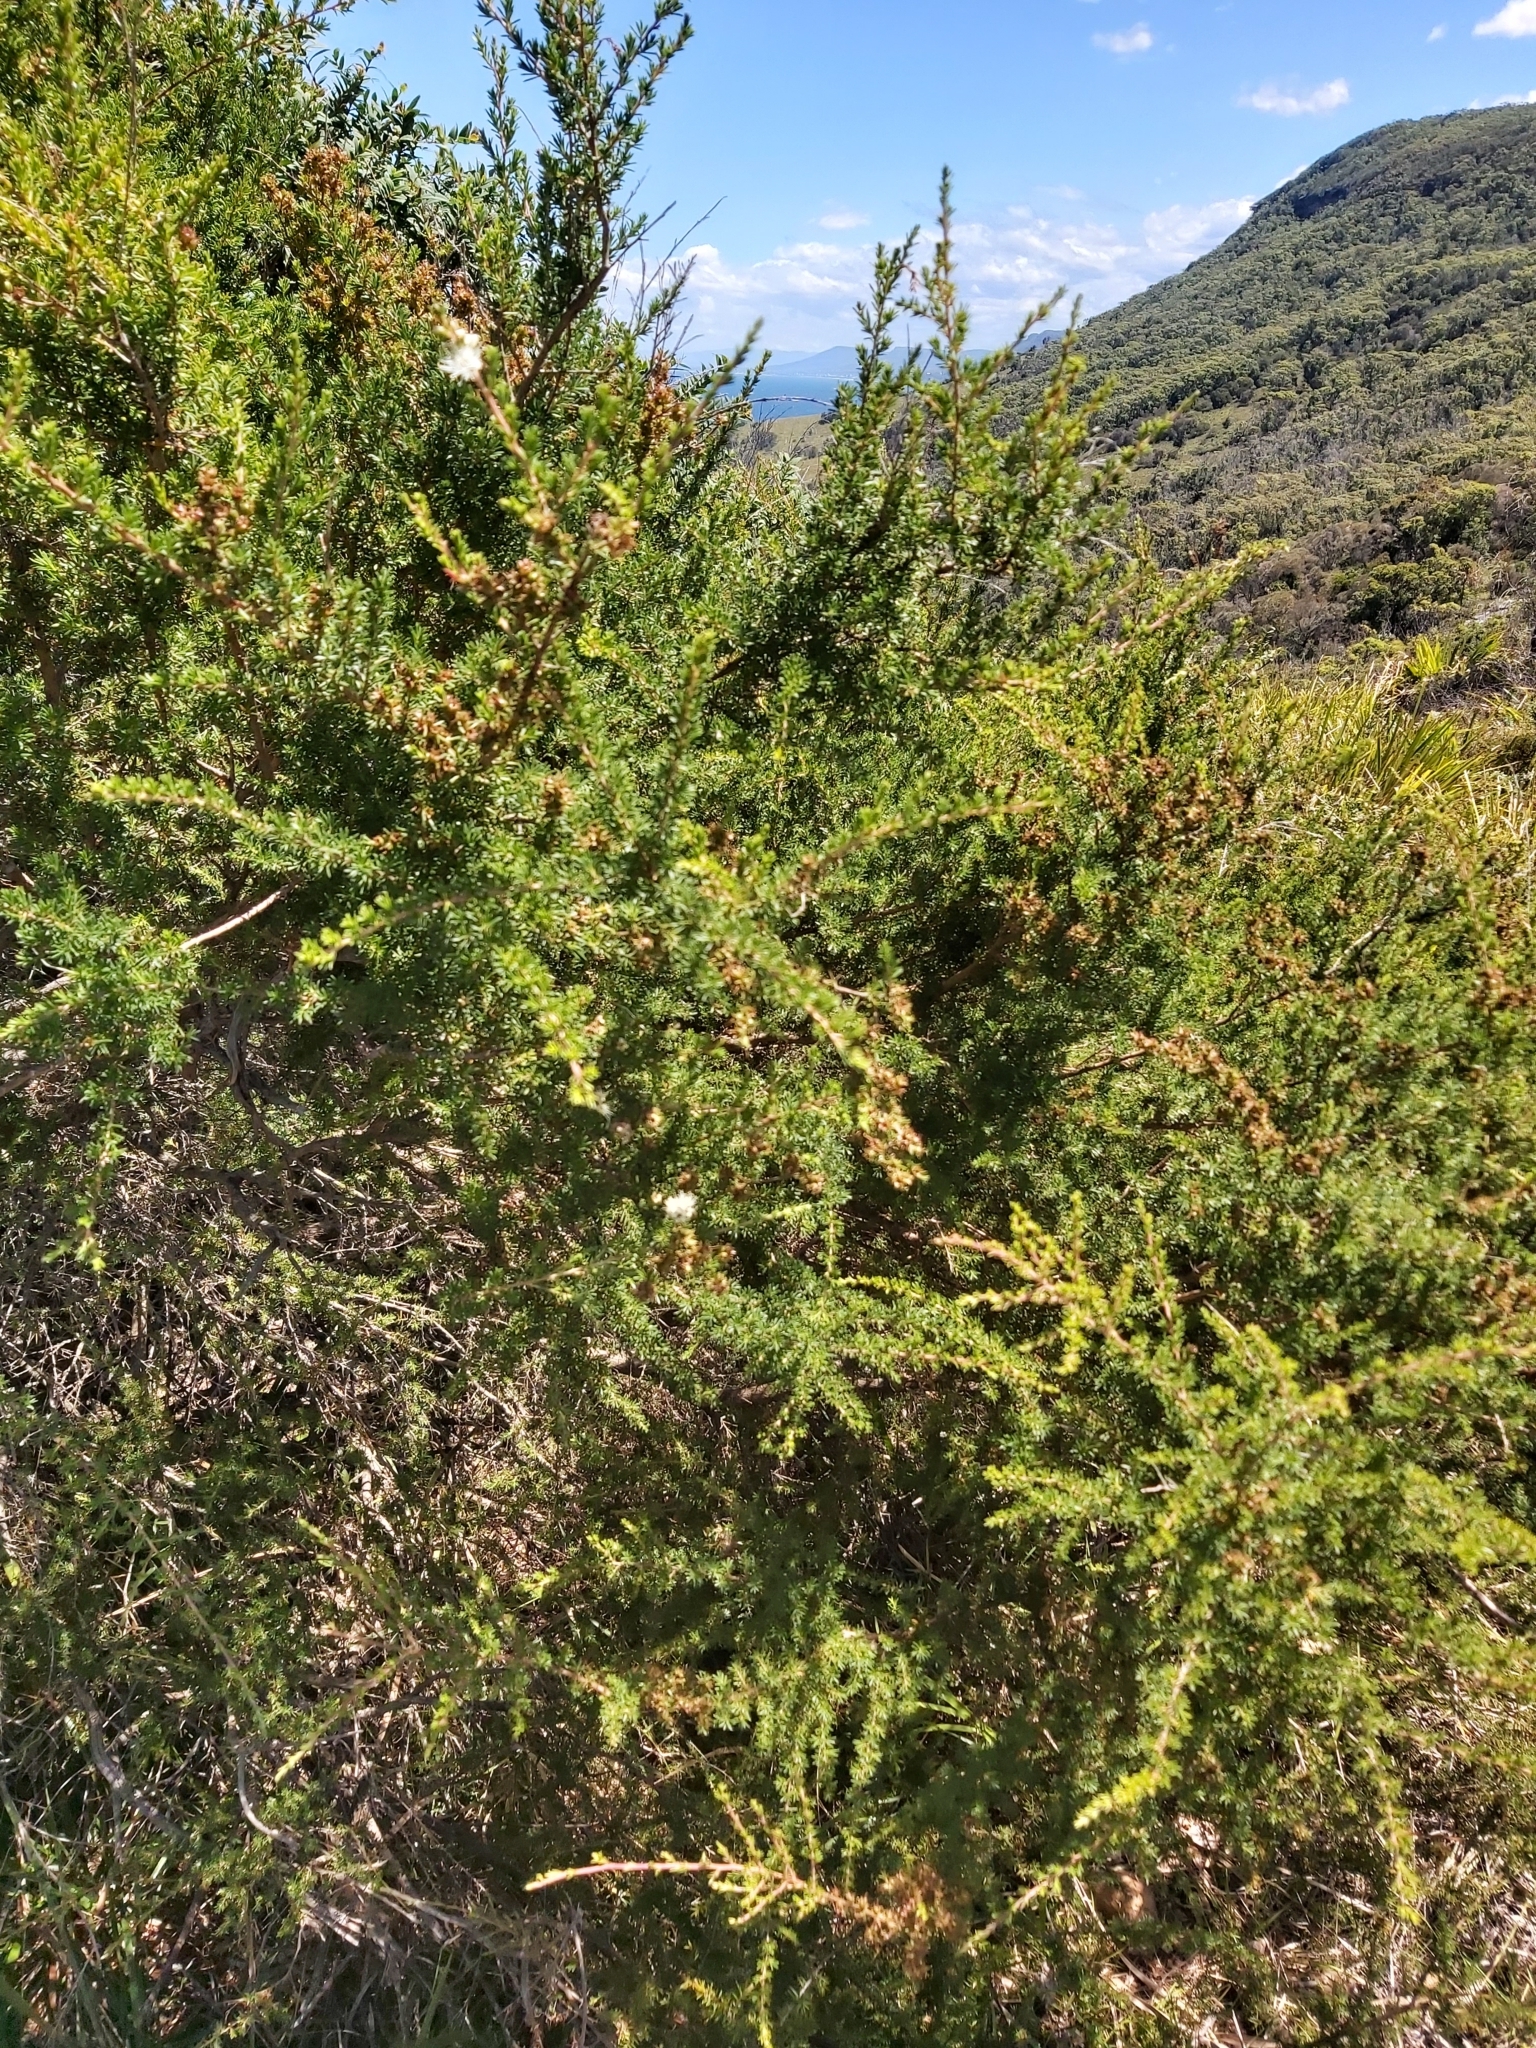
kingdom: Plantae
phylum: Tracheophyta
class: Magnoliopsida
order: Myrtales
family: Myrtaceae
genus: Kunzea
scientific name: Kunzea ambigua
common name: Tickbush
